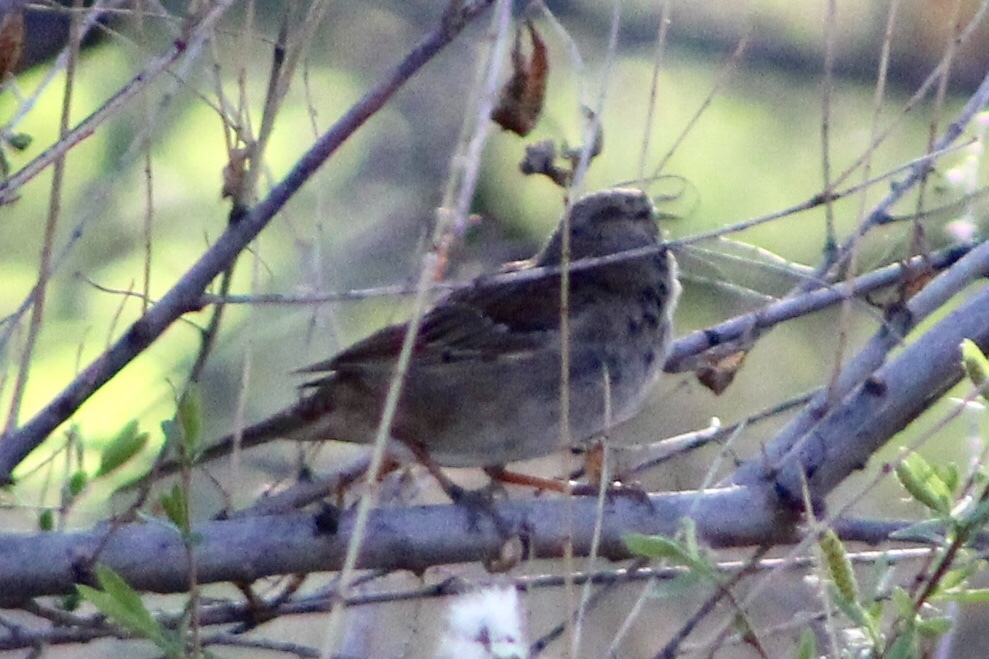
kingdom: Animalia
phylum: Chordata
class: Aves
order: Passeriformes
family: Passerellidae
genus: Zonotrichia
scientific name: Zonotrichia leucophrys
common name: White-crowned sparrow
